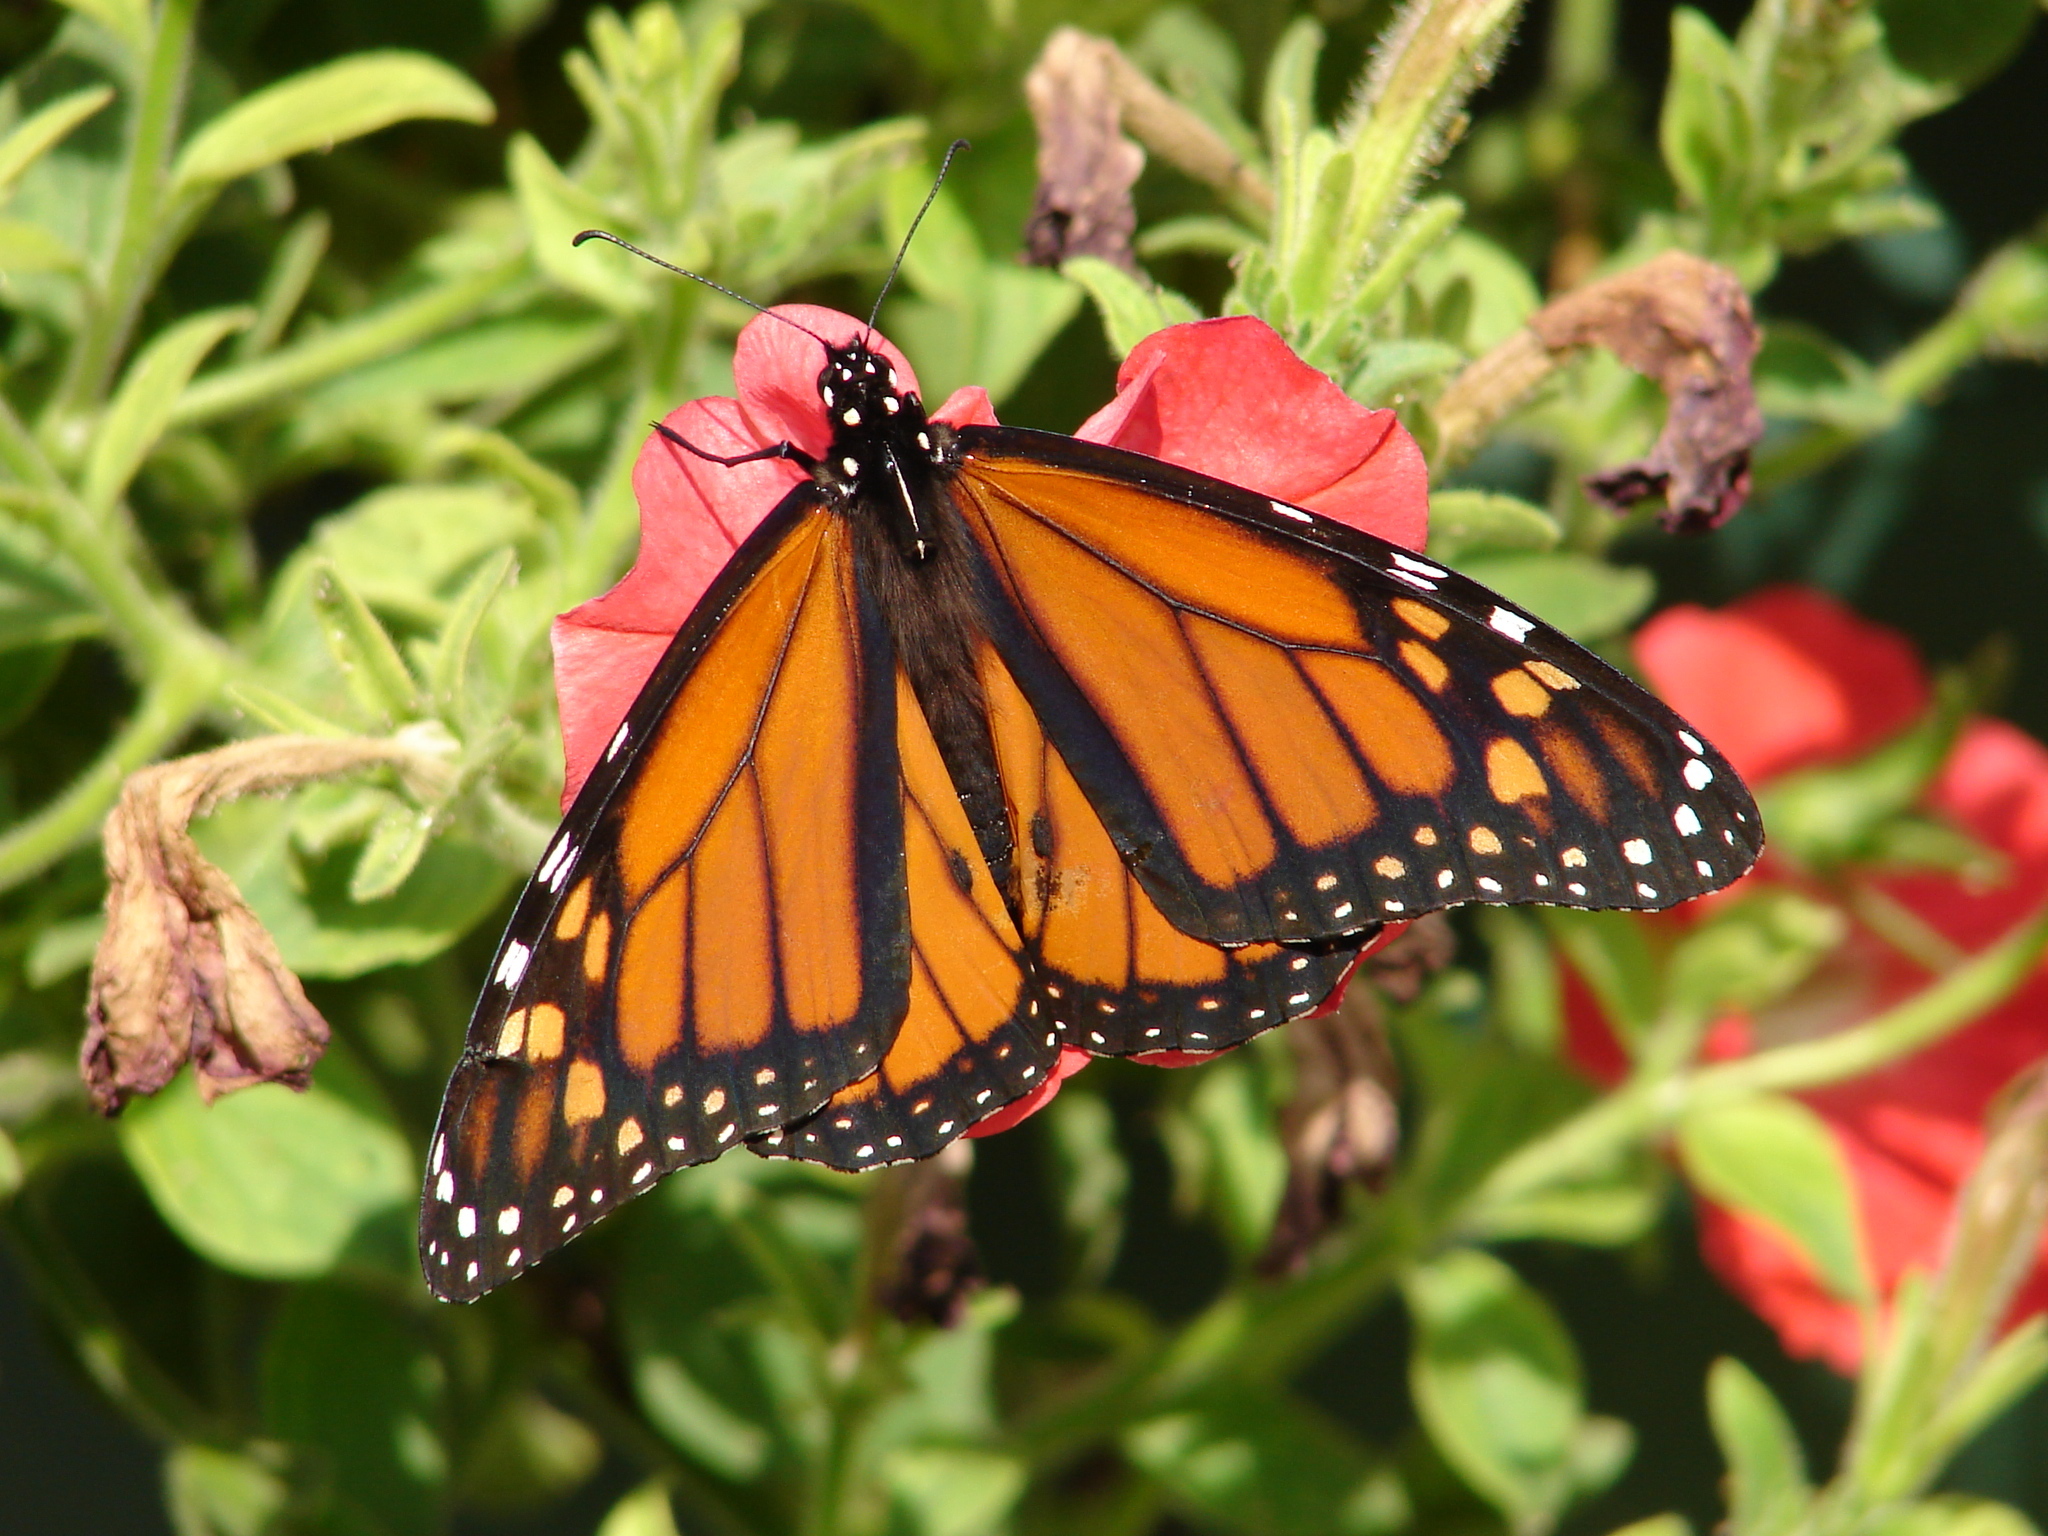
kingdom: Animalia
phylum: Arthropoda
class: Insecta
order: Lepidoptera
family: Nymphalidae
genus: Danaus
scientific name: Danaus plexippus
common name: Monarch
